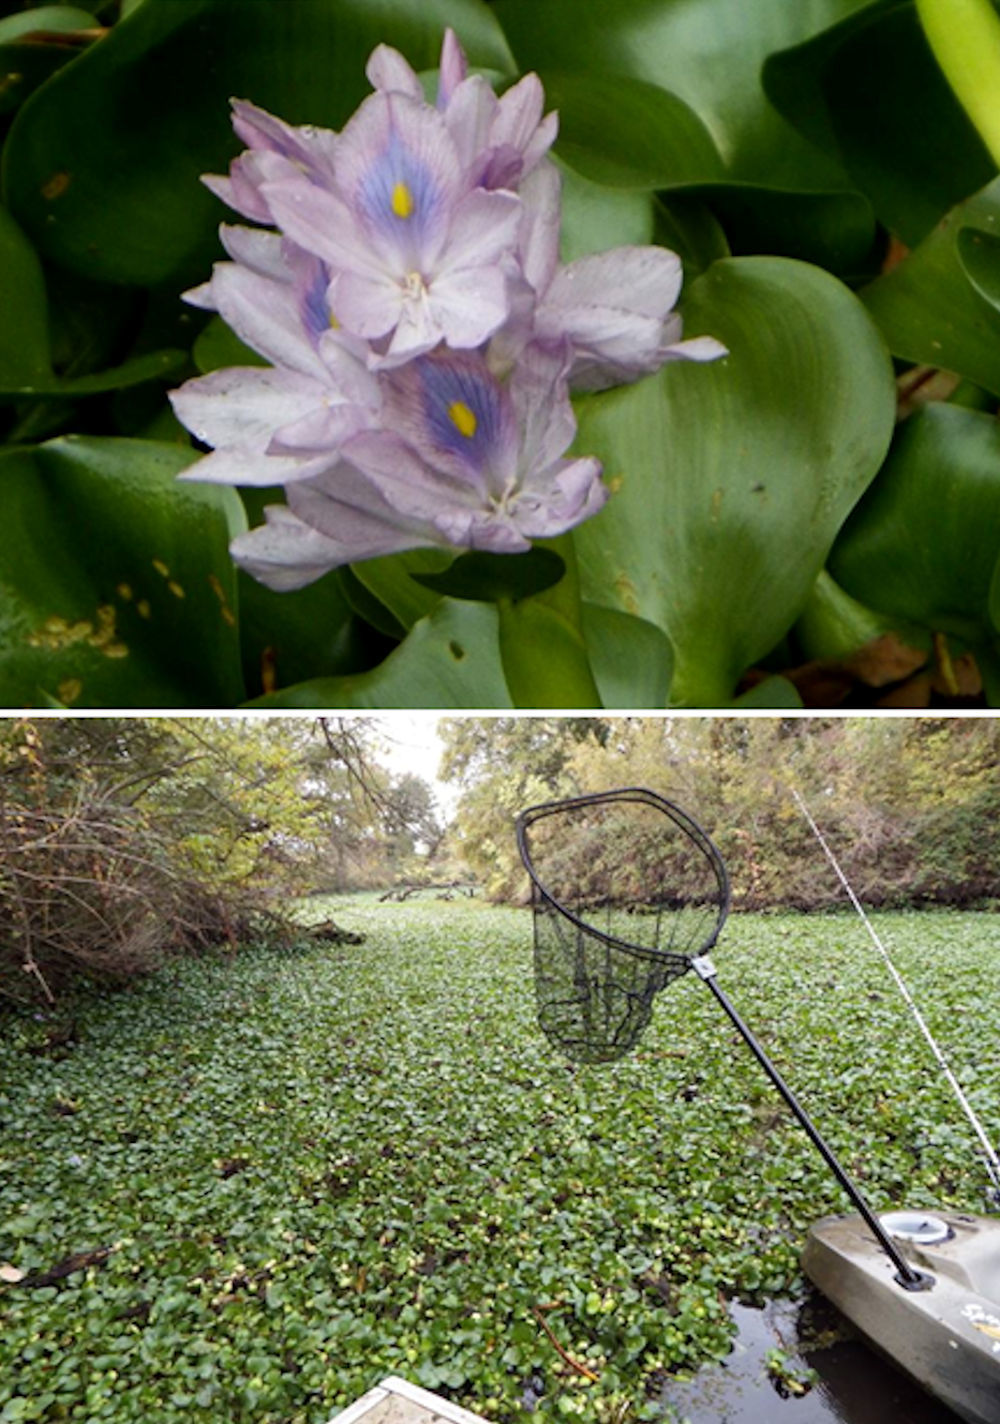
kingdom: Plantae
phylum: Tracheophyta
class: Liliopsida
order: Commelinales
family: Pontederiaceae
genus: Pontederia
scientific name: Pontederia crassipes
